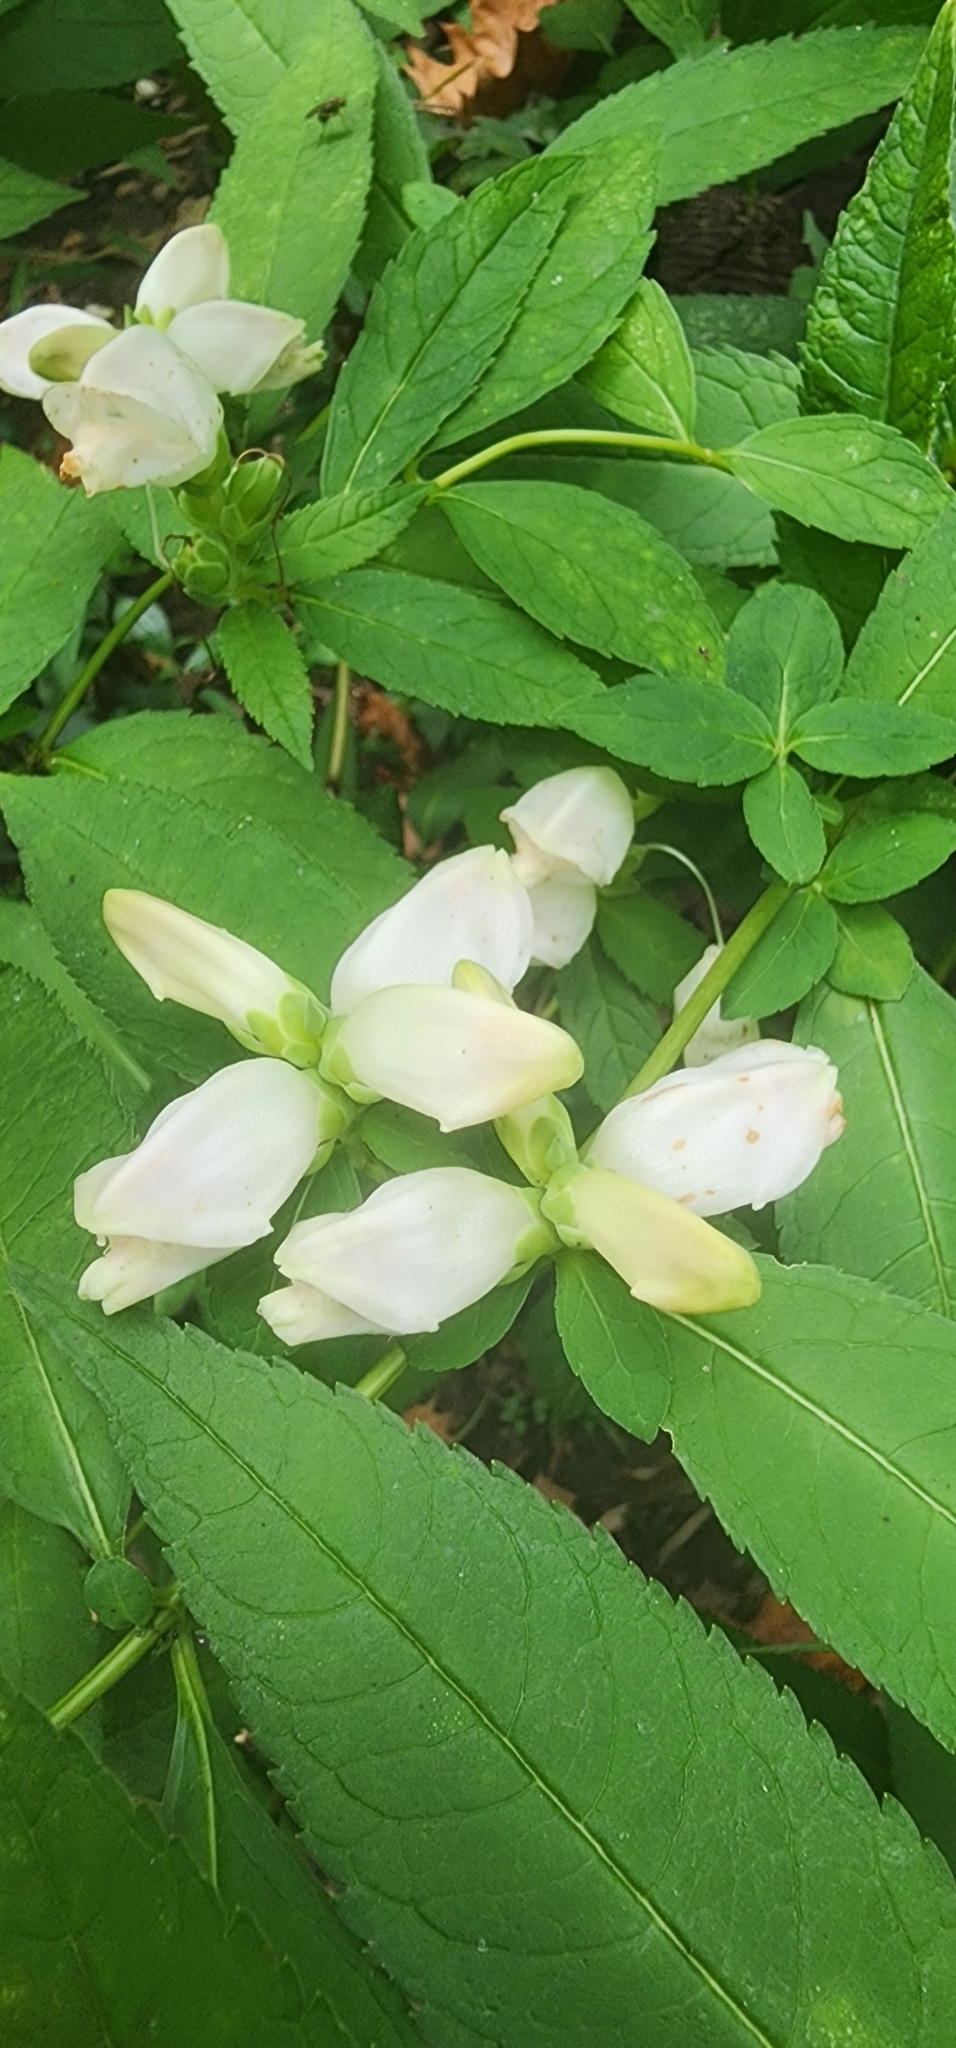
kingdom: Plantae
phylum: Tracheophyta
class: Magnoliopsida
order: Lamiales
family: Plantaginaceae
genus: Chelone
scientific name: Chelone glabra
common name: Snakehead
